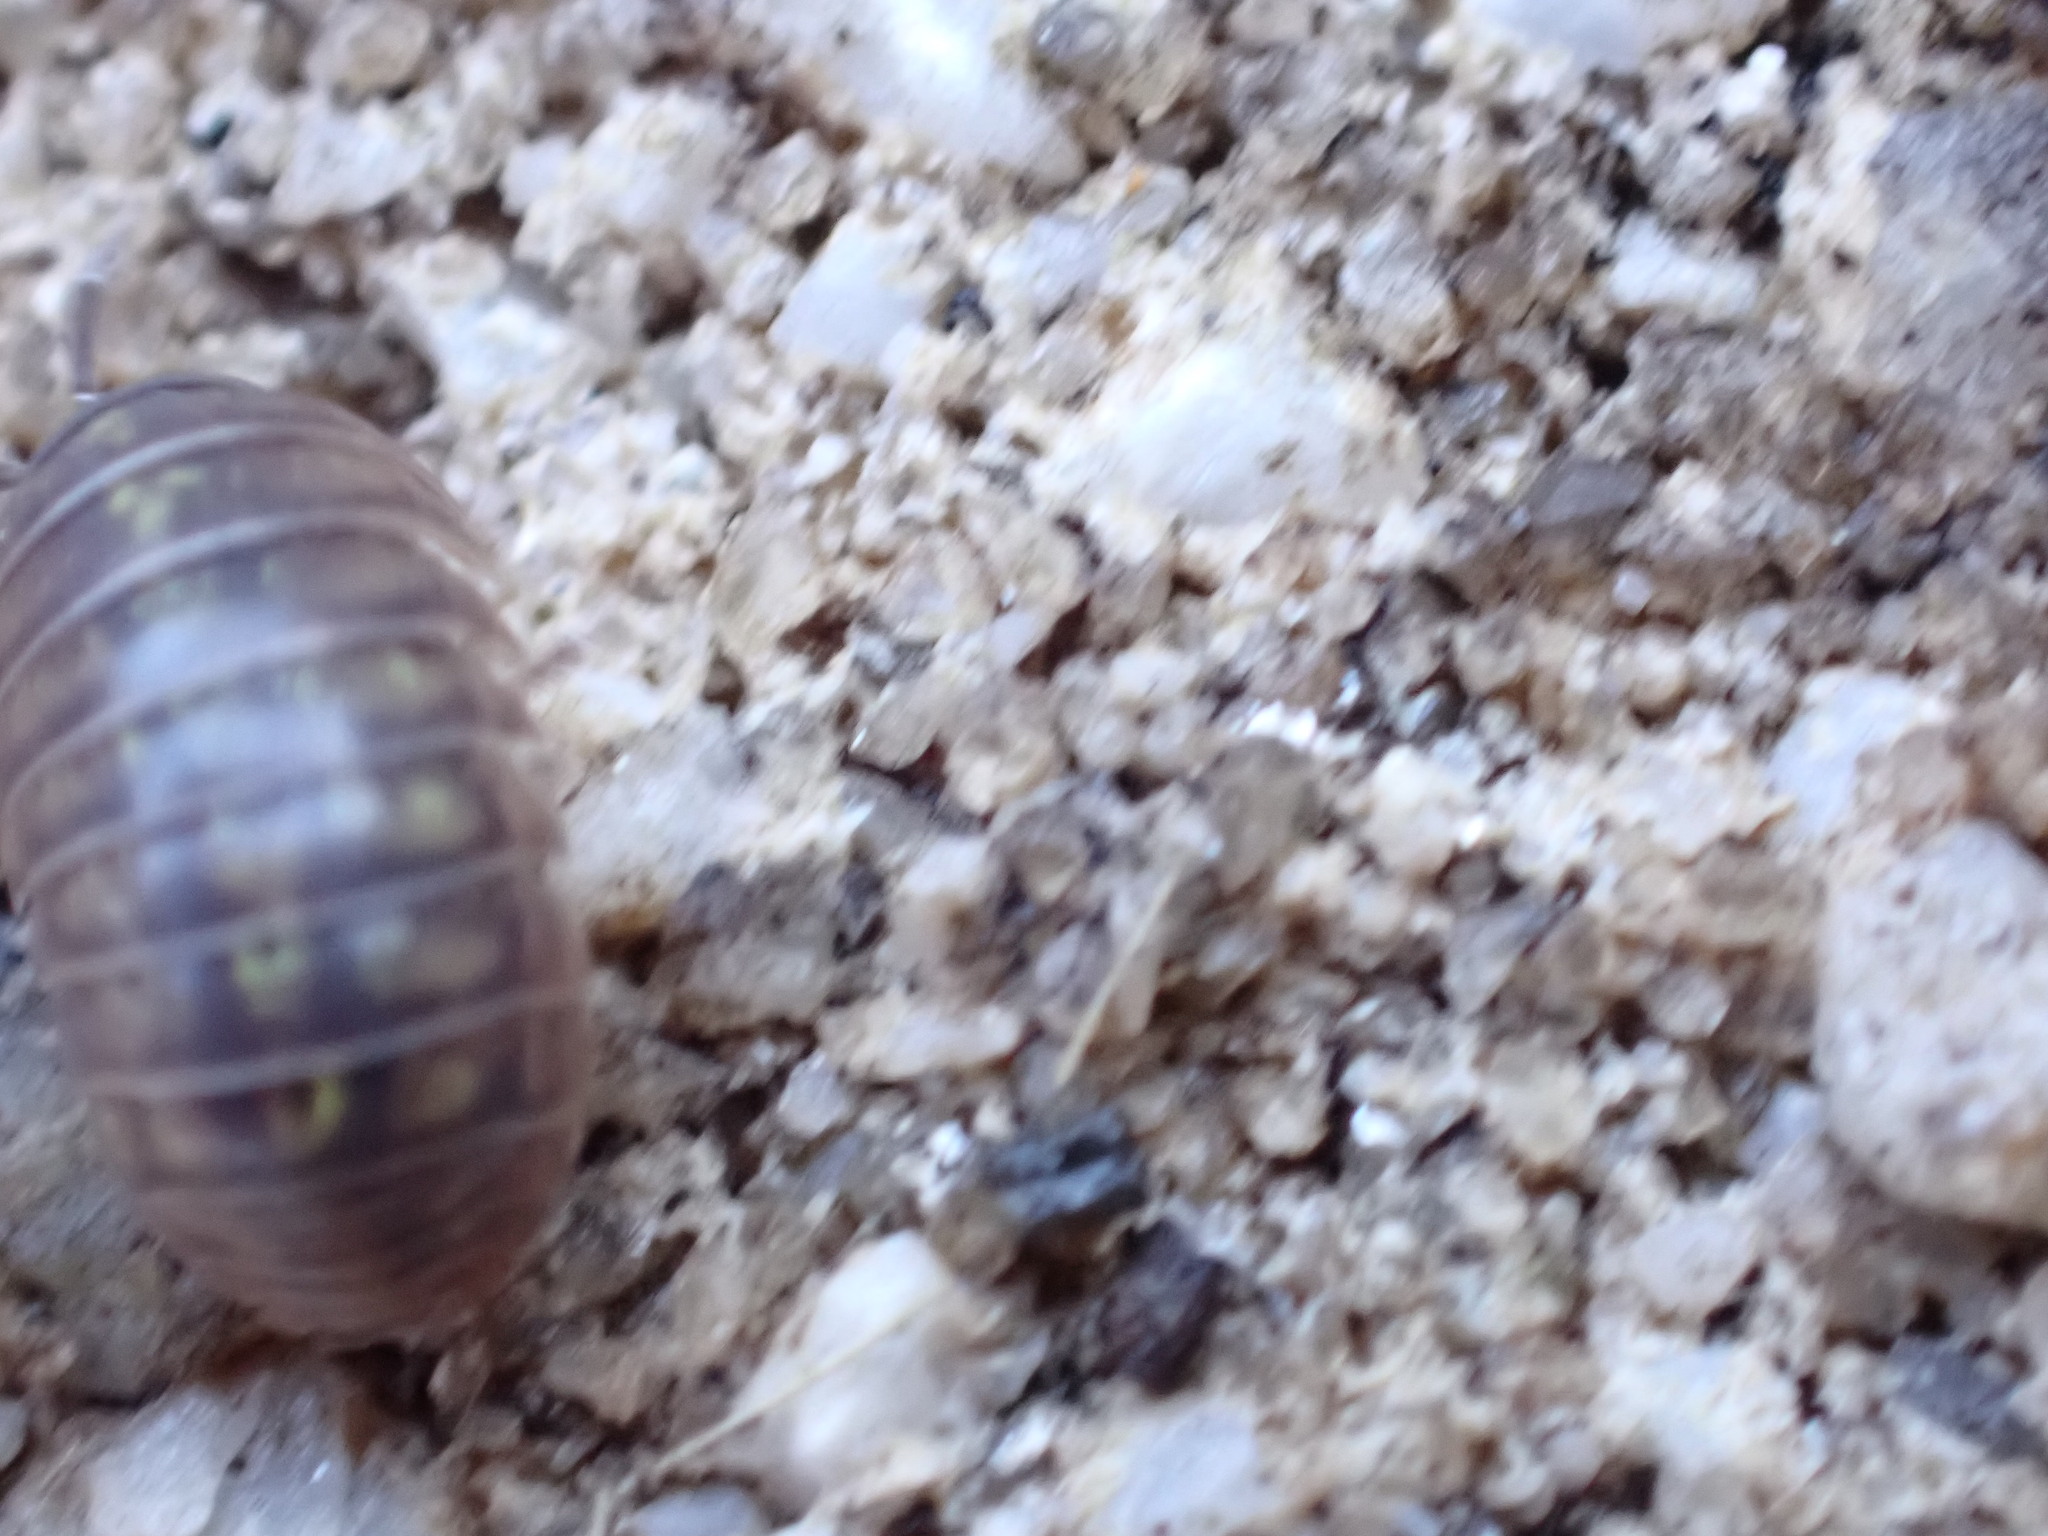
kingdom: Animalia
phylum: Arthropoda
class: Malacostraca
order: Isopoda
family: Armadillidiidae
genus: Armadillidium
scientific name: Armadillidium vulgare
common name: Common pill woodlouse
